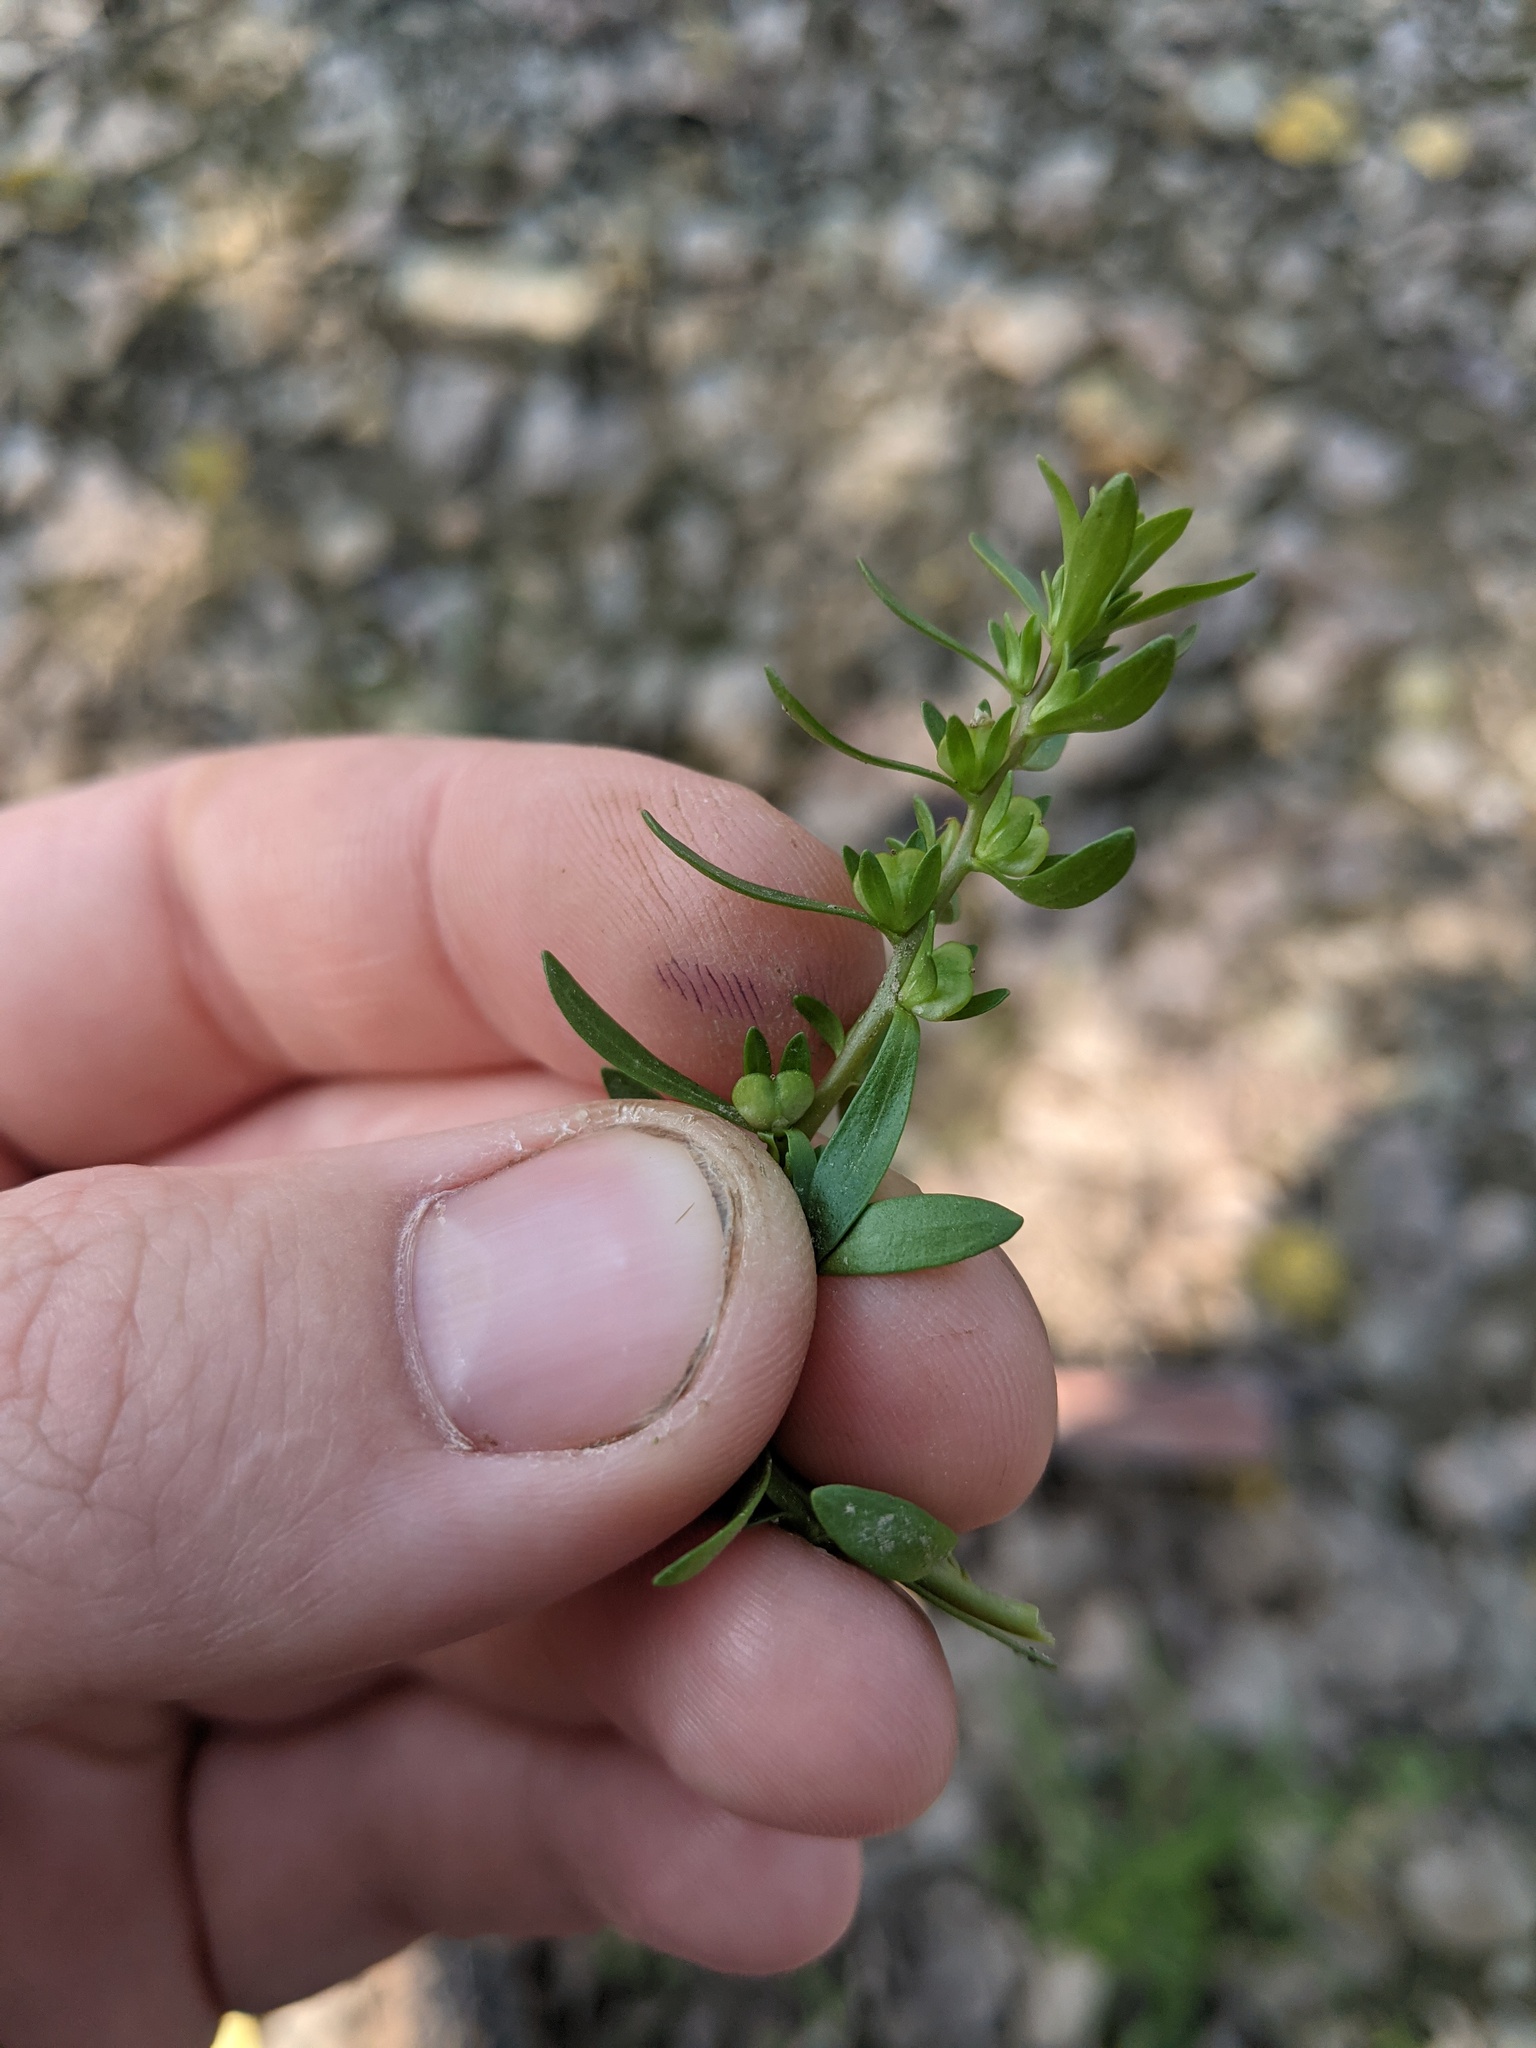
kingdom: Plantae
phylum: Tracheophyta
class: Magnoliopsida
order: Lamiales
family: Plantaginaceae
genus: Veronica
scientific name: Veronica peregrina
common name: Neckweed
